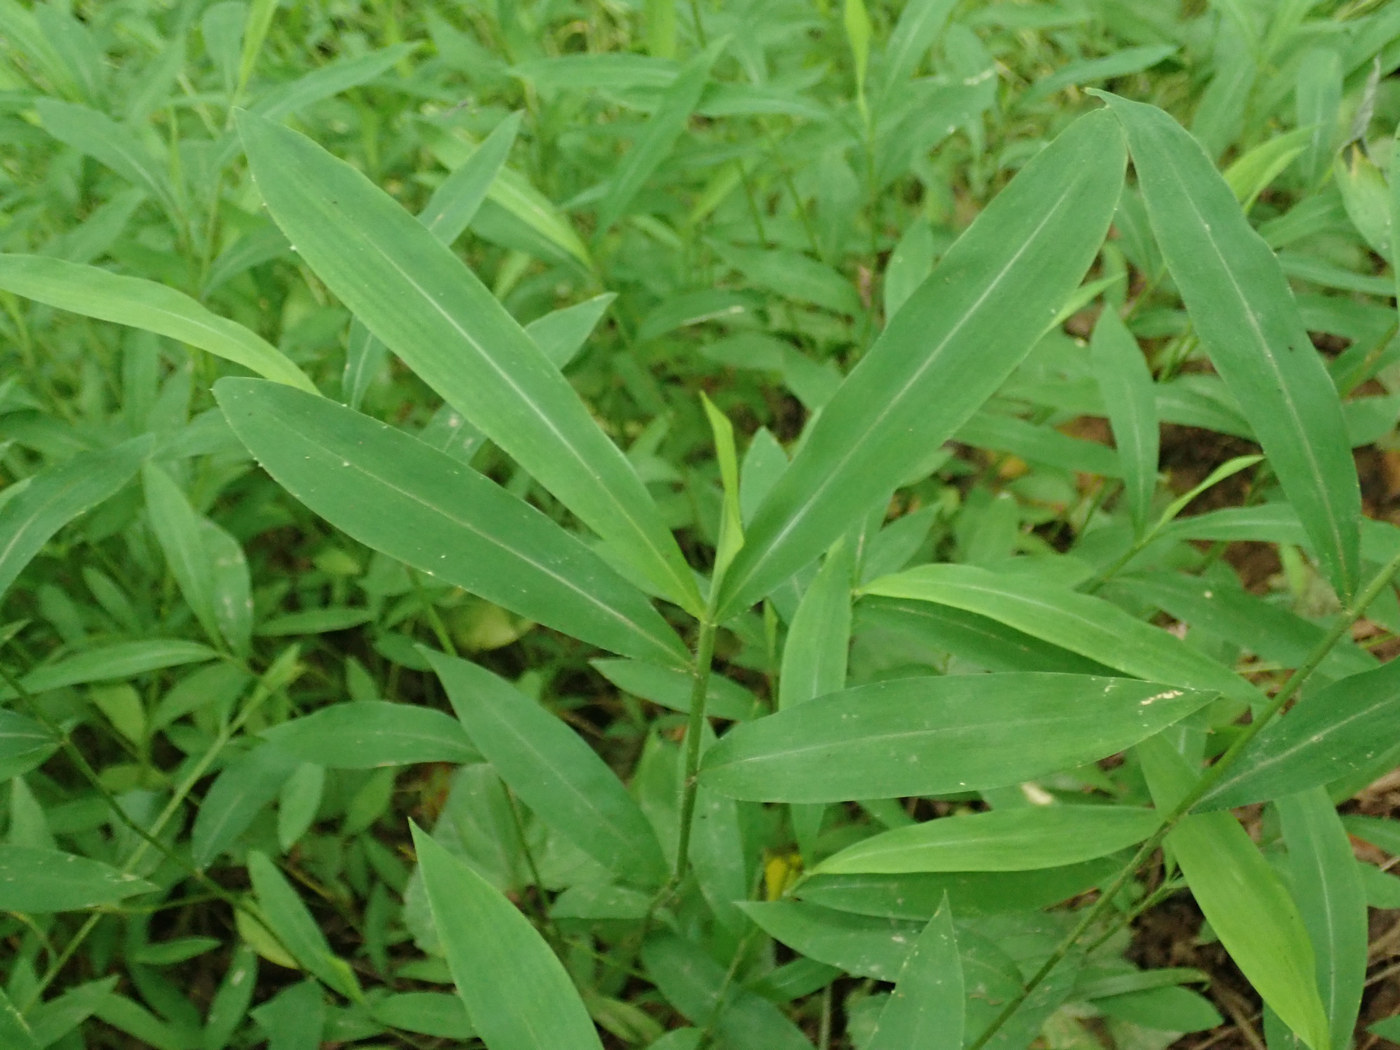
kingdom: Plantae
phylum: Tracheophyta
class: Liliopsida
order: Poales
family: Poaceae
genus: Microstegium
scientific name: Microstegium vimineum
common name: Japanese stiltgrass
